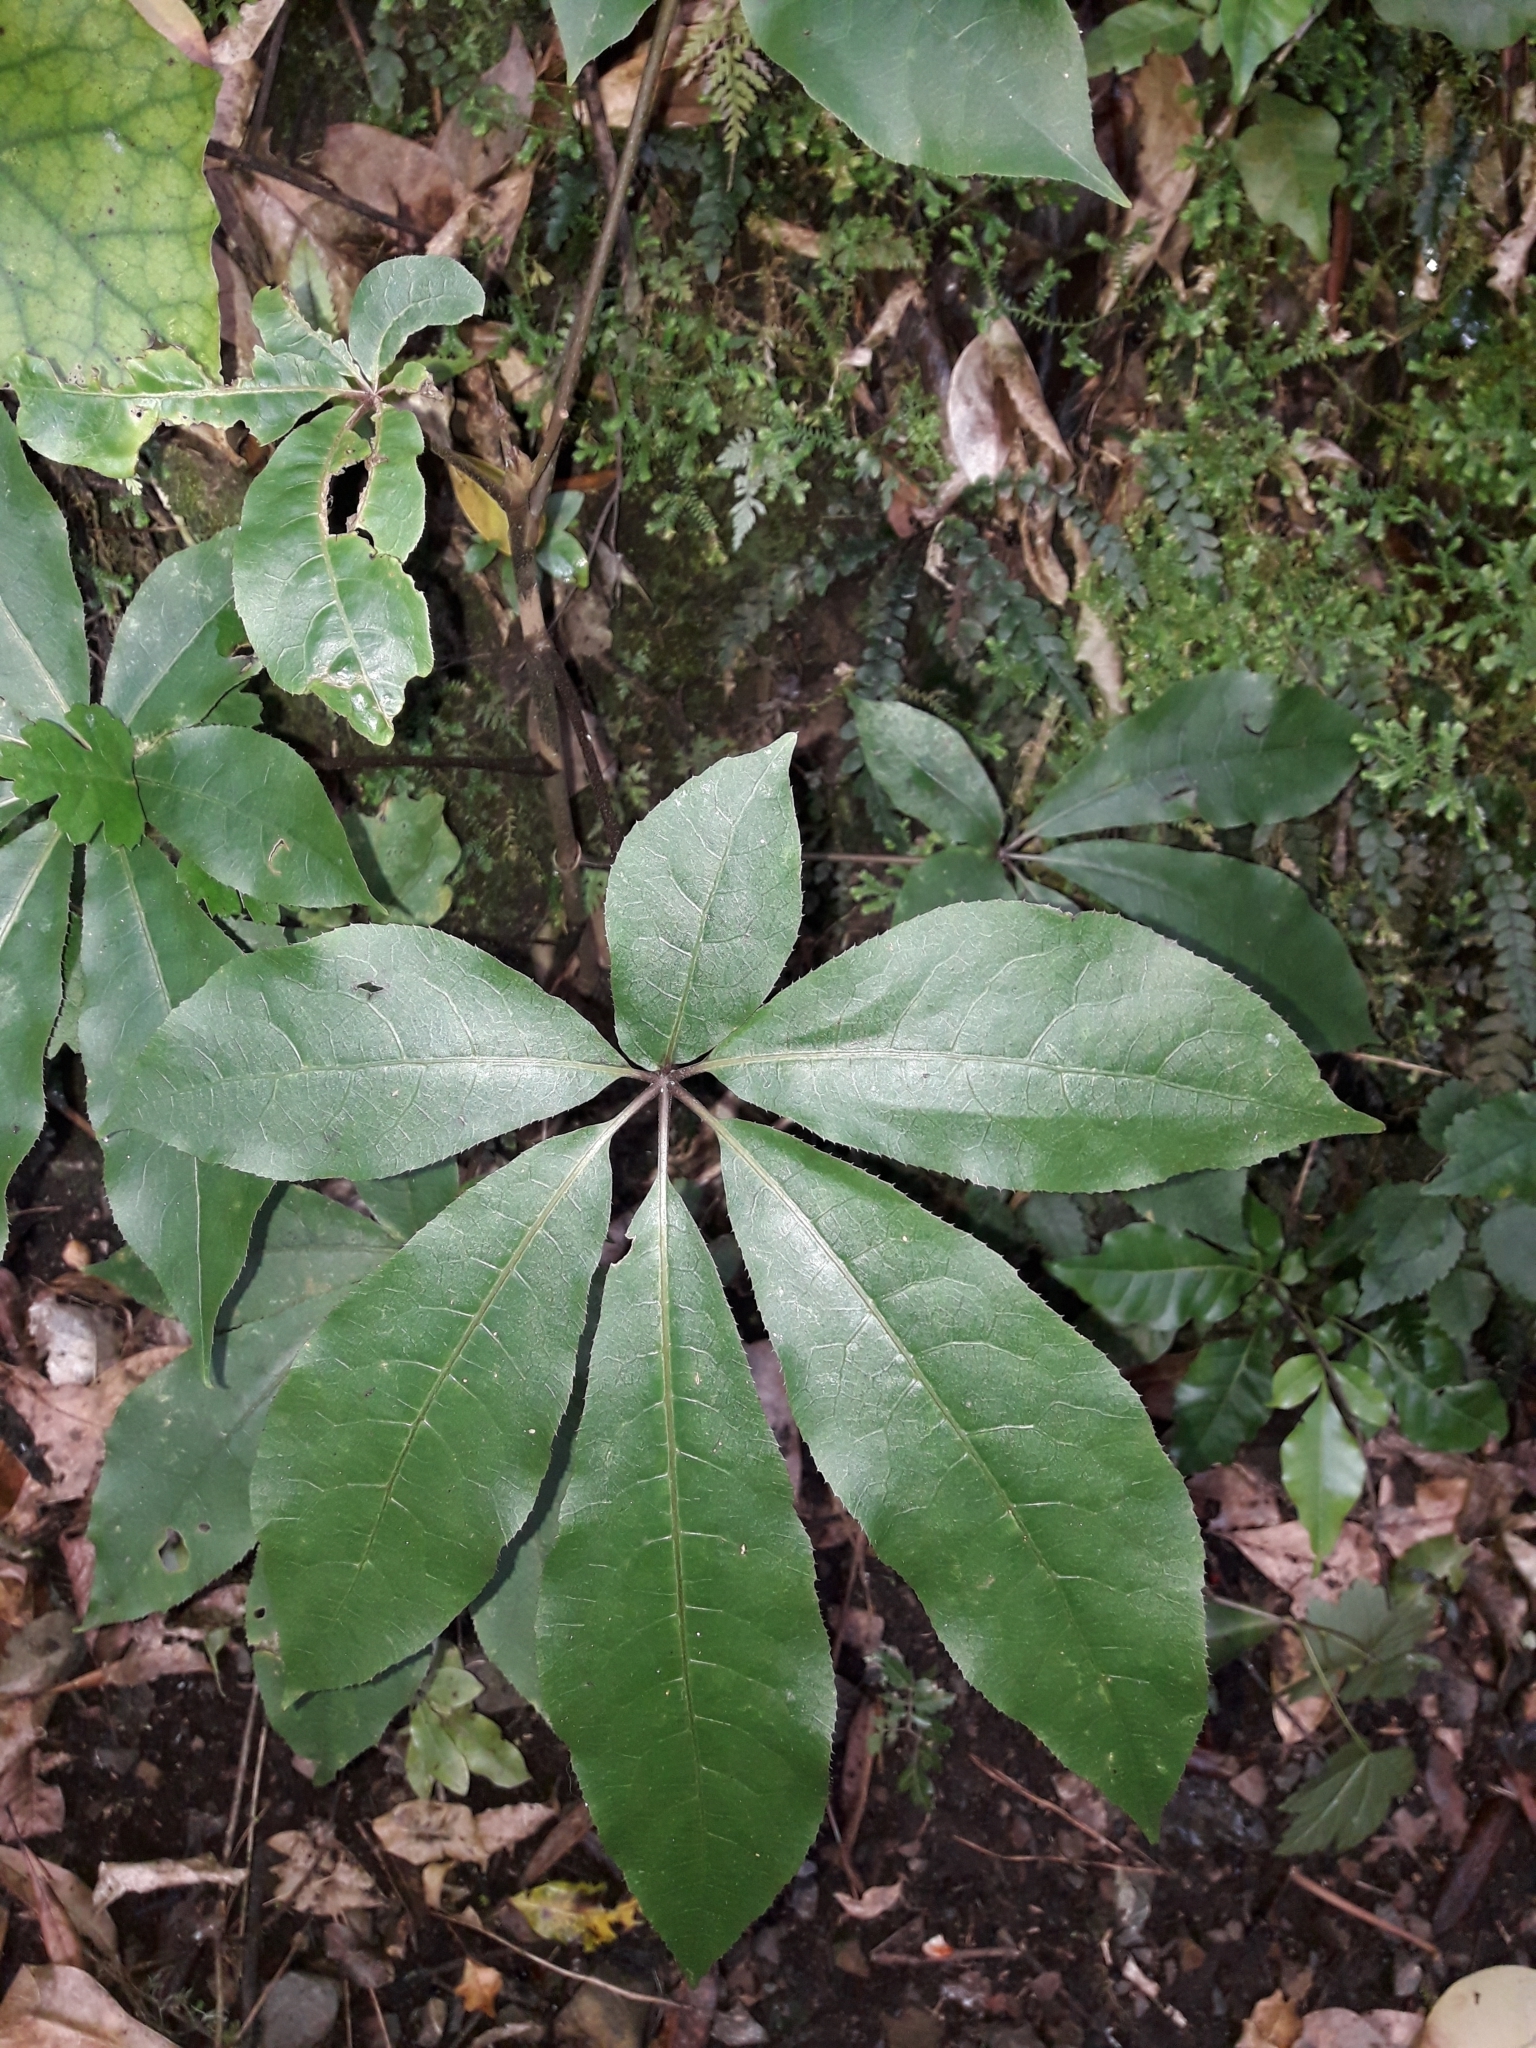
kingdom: Plantae
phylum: Tracheophyta
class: Magnoliopsida
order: Apiales
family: Araliaceae
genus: Schefflera
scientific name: Schefflera digitata
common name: Pate
